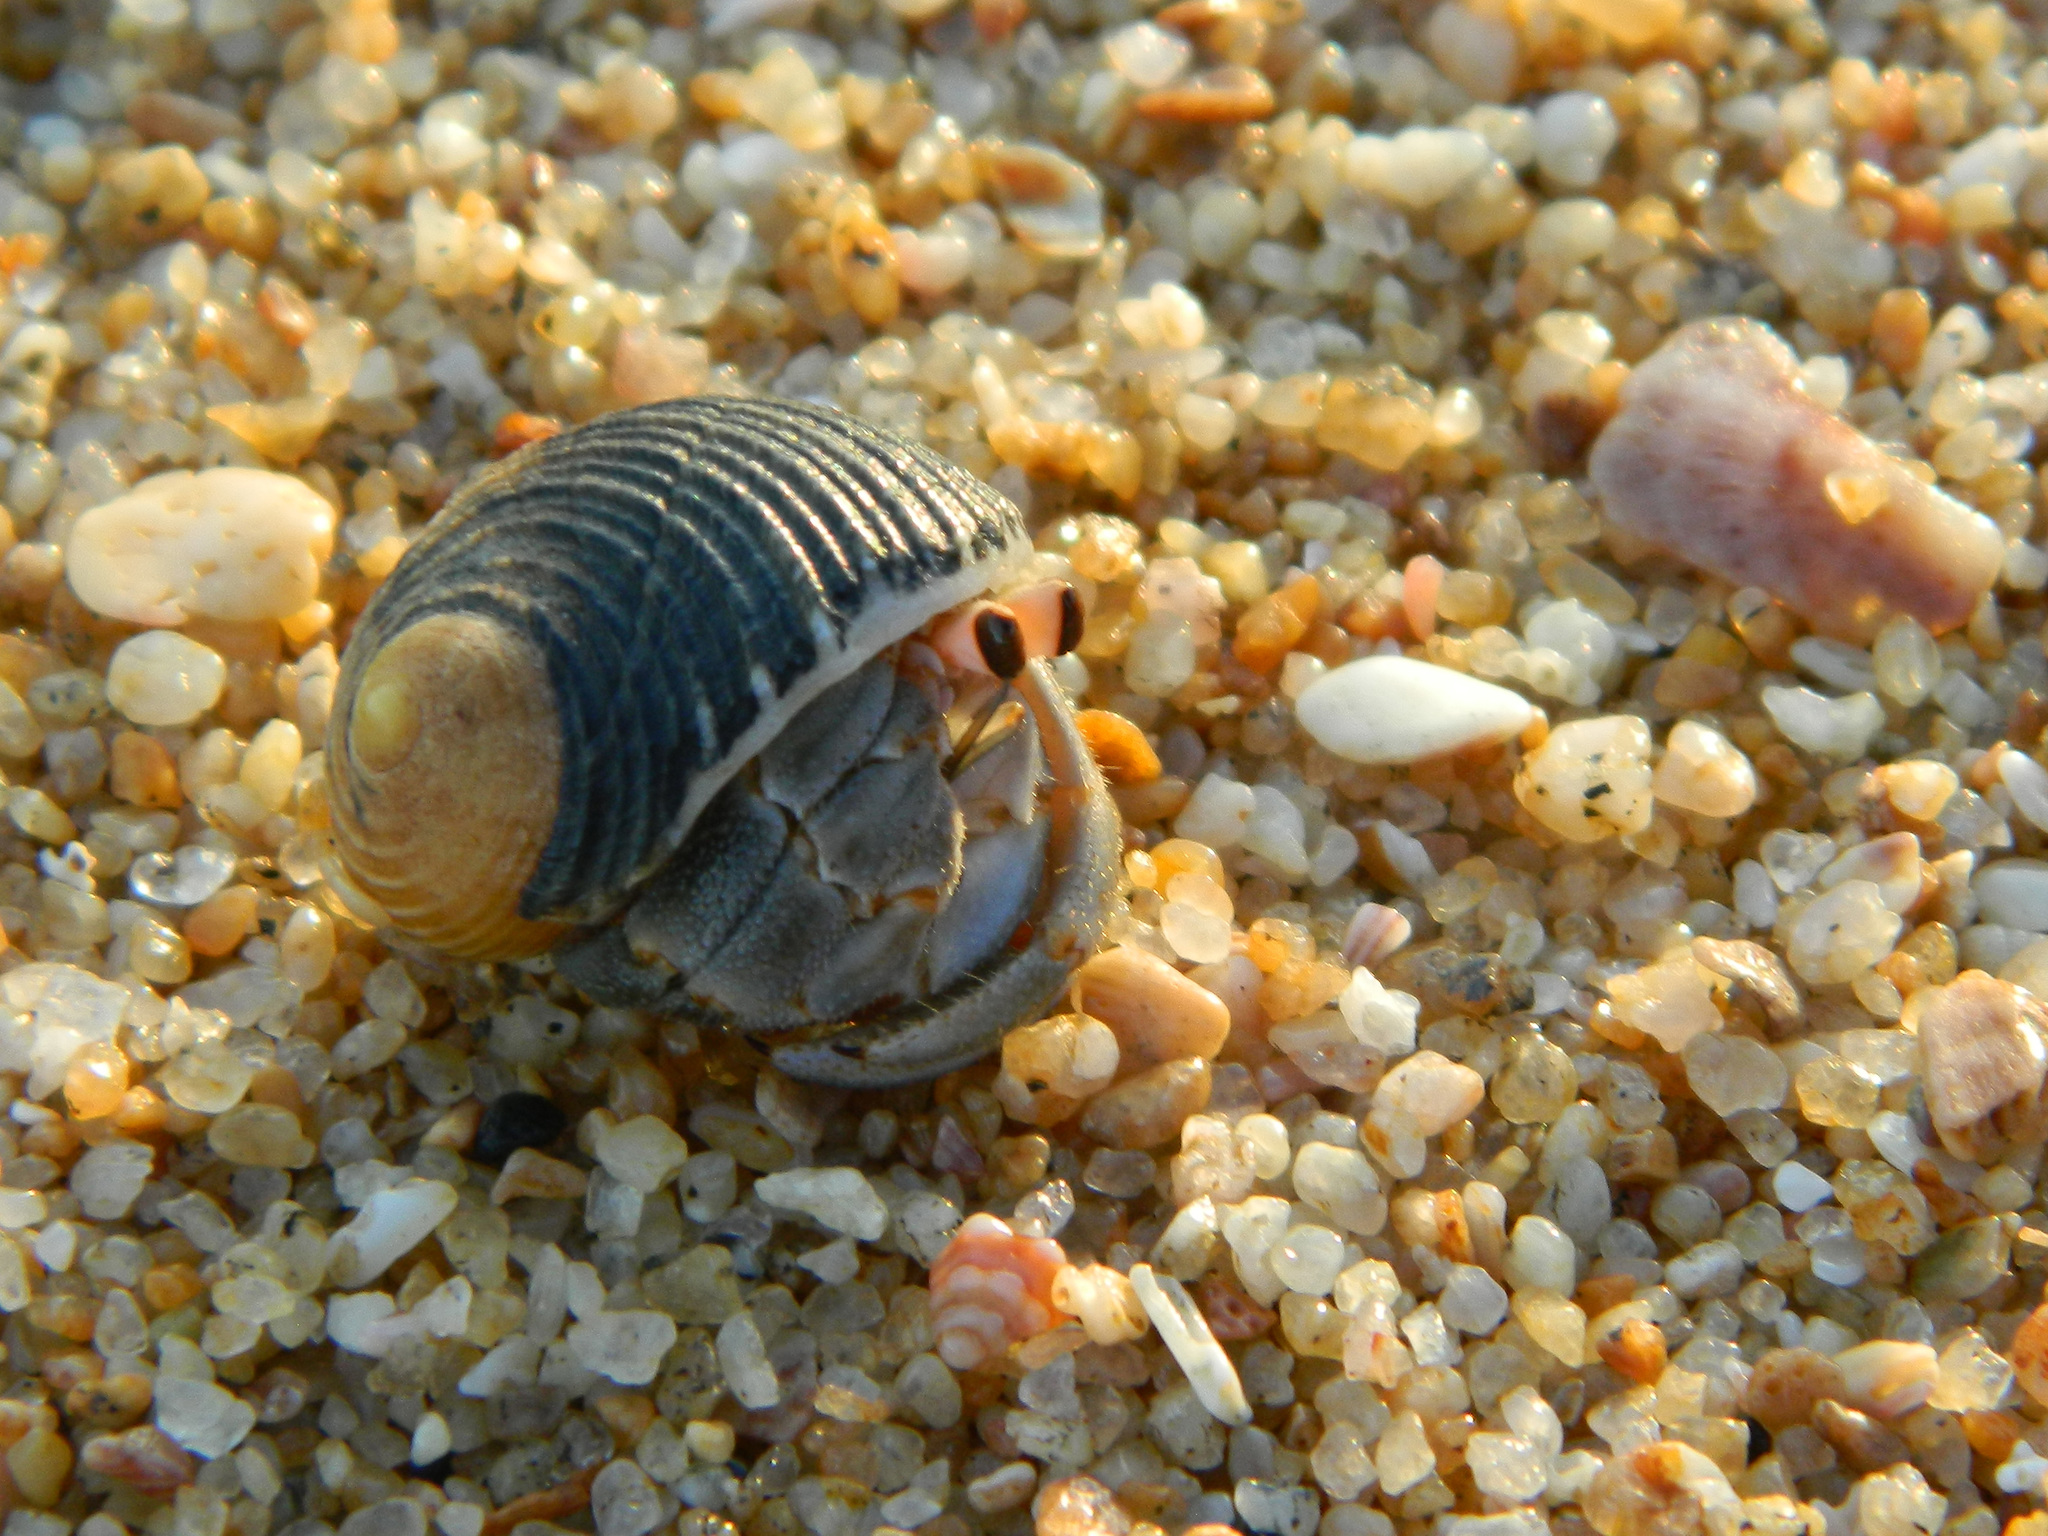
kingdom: Animalia
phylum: Arthropoda
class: Malacostraca
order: Decapoda
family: Coenobitidae
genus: Coenobita
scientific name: Coenobita compressus
